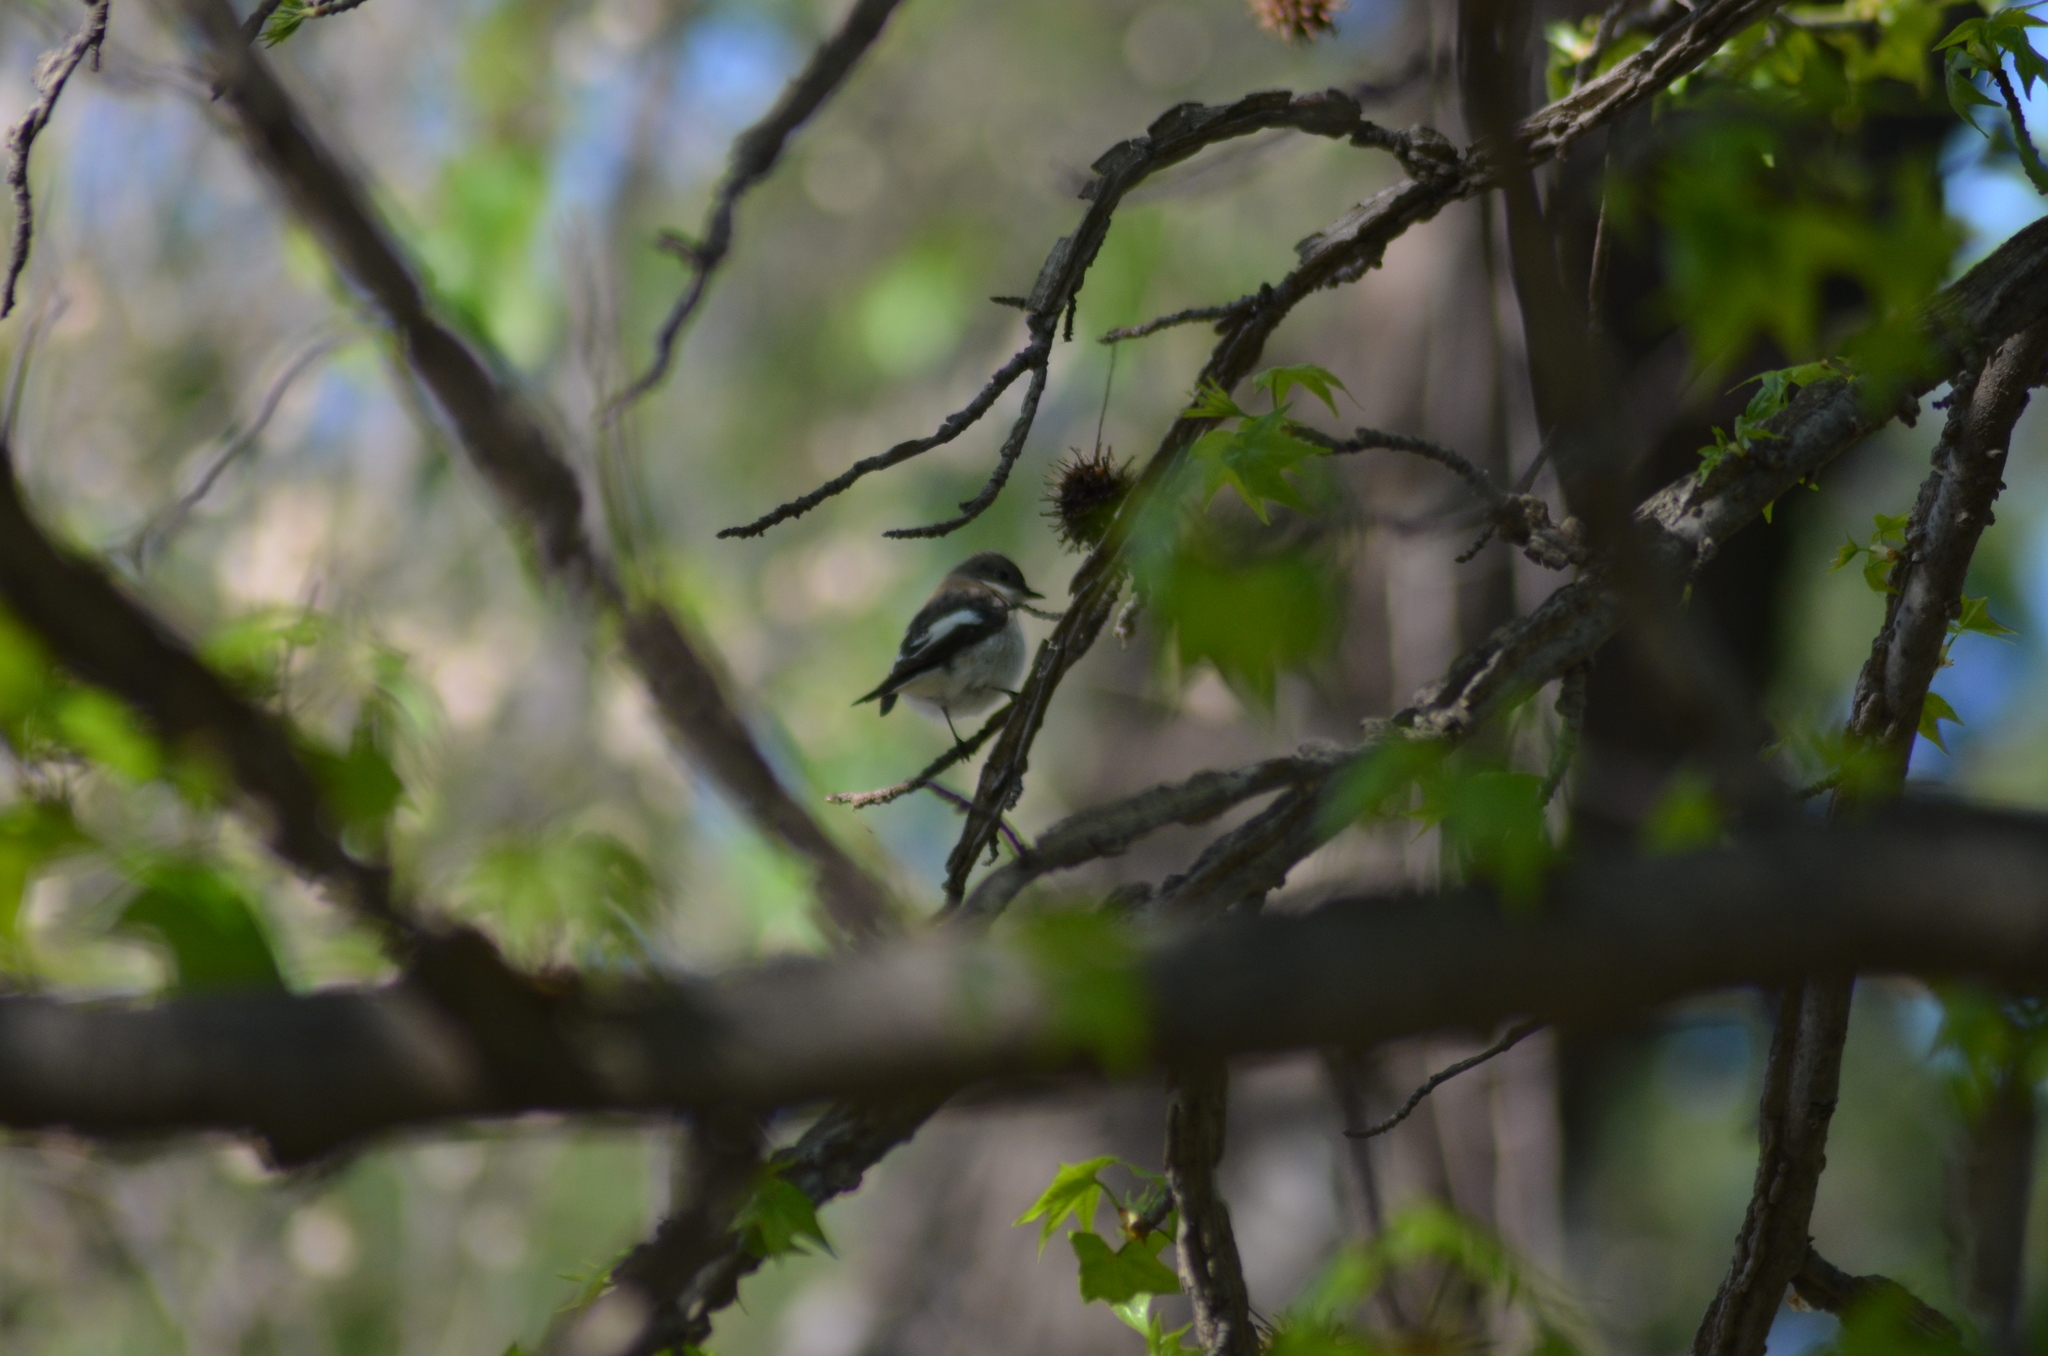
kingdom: Animalia
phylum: Chordata
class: Aves
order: Passeriformes
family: Muscicapidae
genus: Ficedula
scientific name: Ficedula hypoleuca
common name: European pied flycatcher
